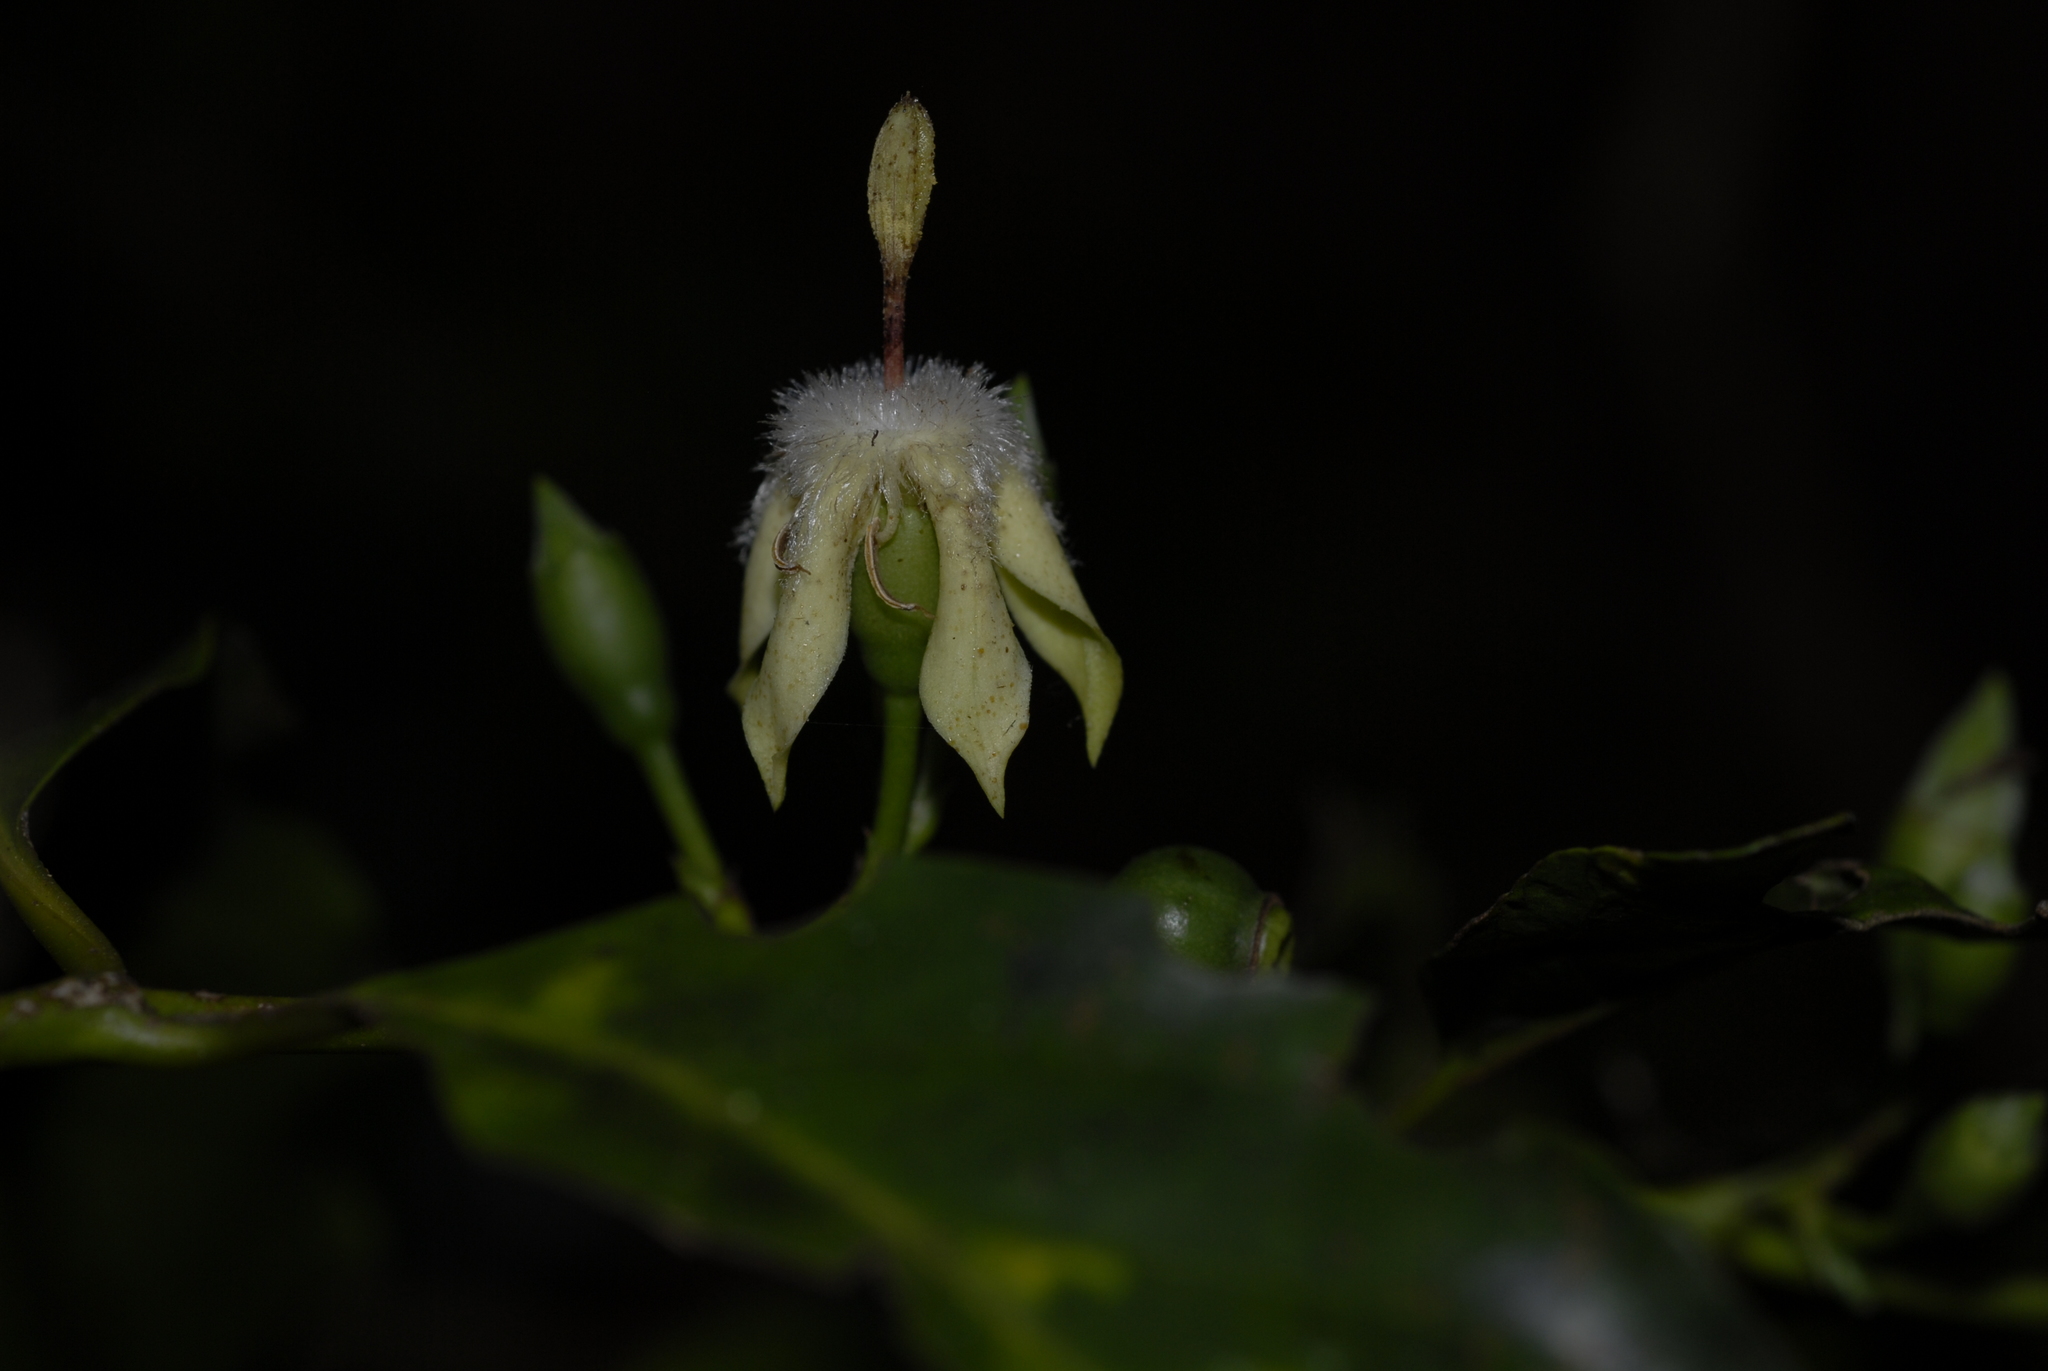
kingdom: Plantae
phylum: Tracheophyta
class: Magnoliopsida
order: Gentianales
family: Rubiaceae
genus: Aidia
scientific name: Aidia micrantha
